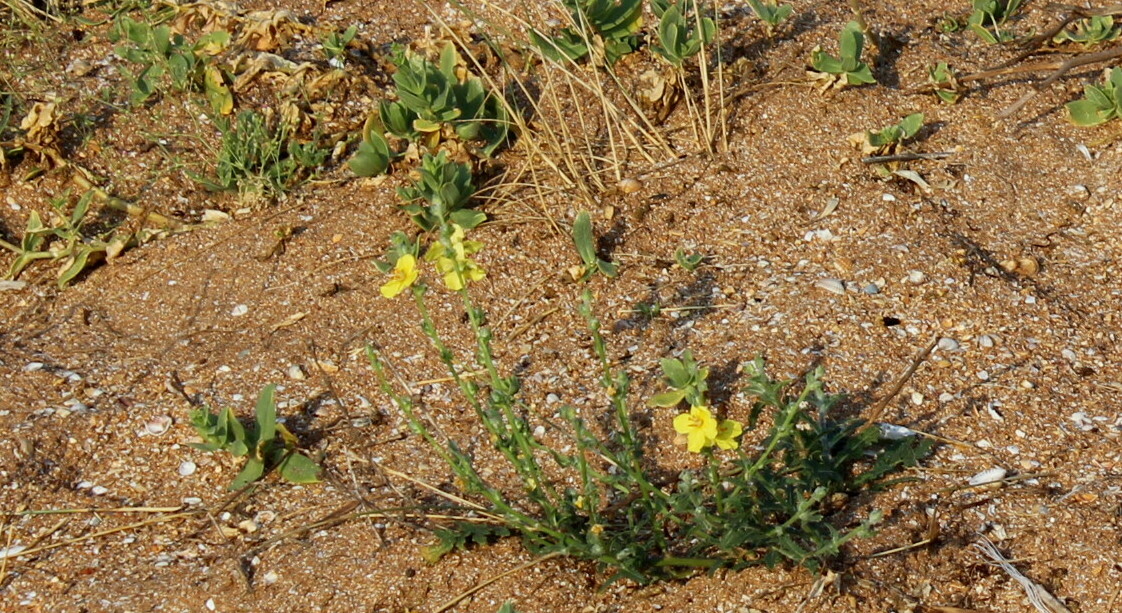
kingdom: Plantae
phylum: Tracheophyta
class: Magnoliopsida
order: Lamiales
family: Scrophulariaceae
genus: Verbascum
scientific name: Verbascum pinnatifidum
